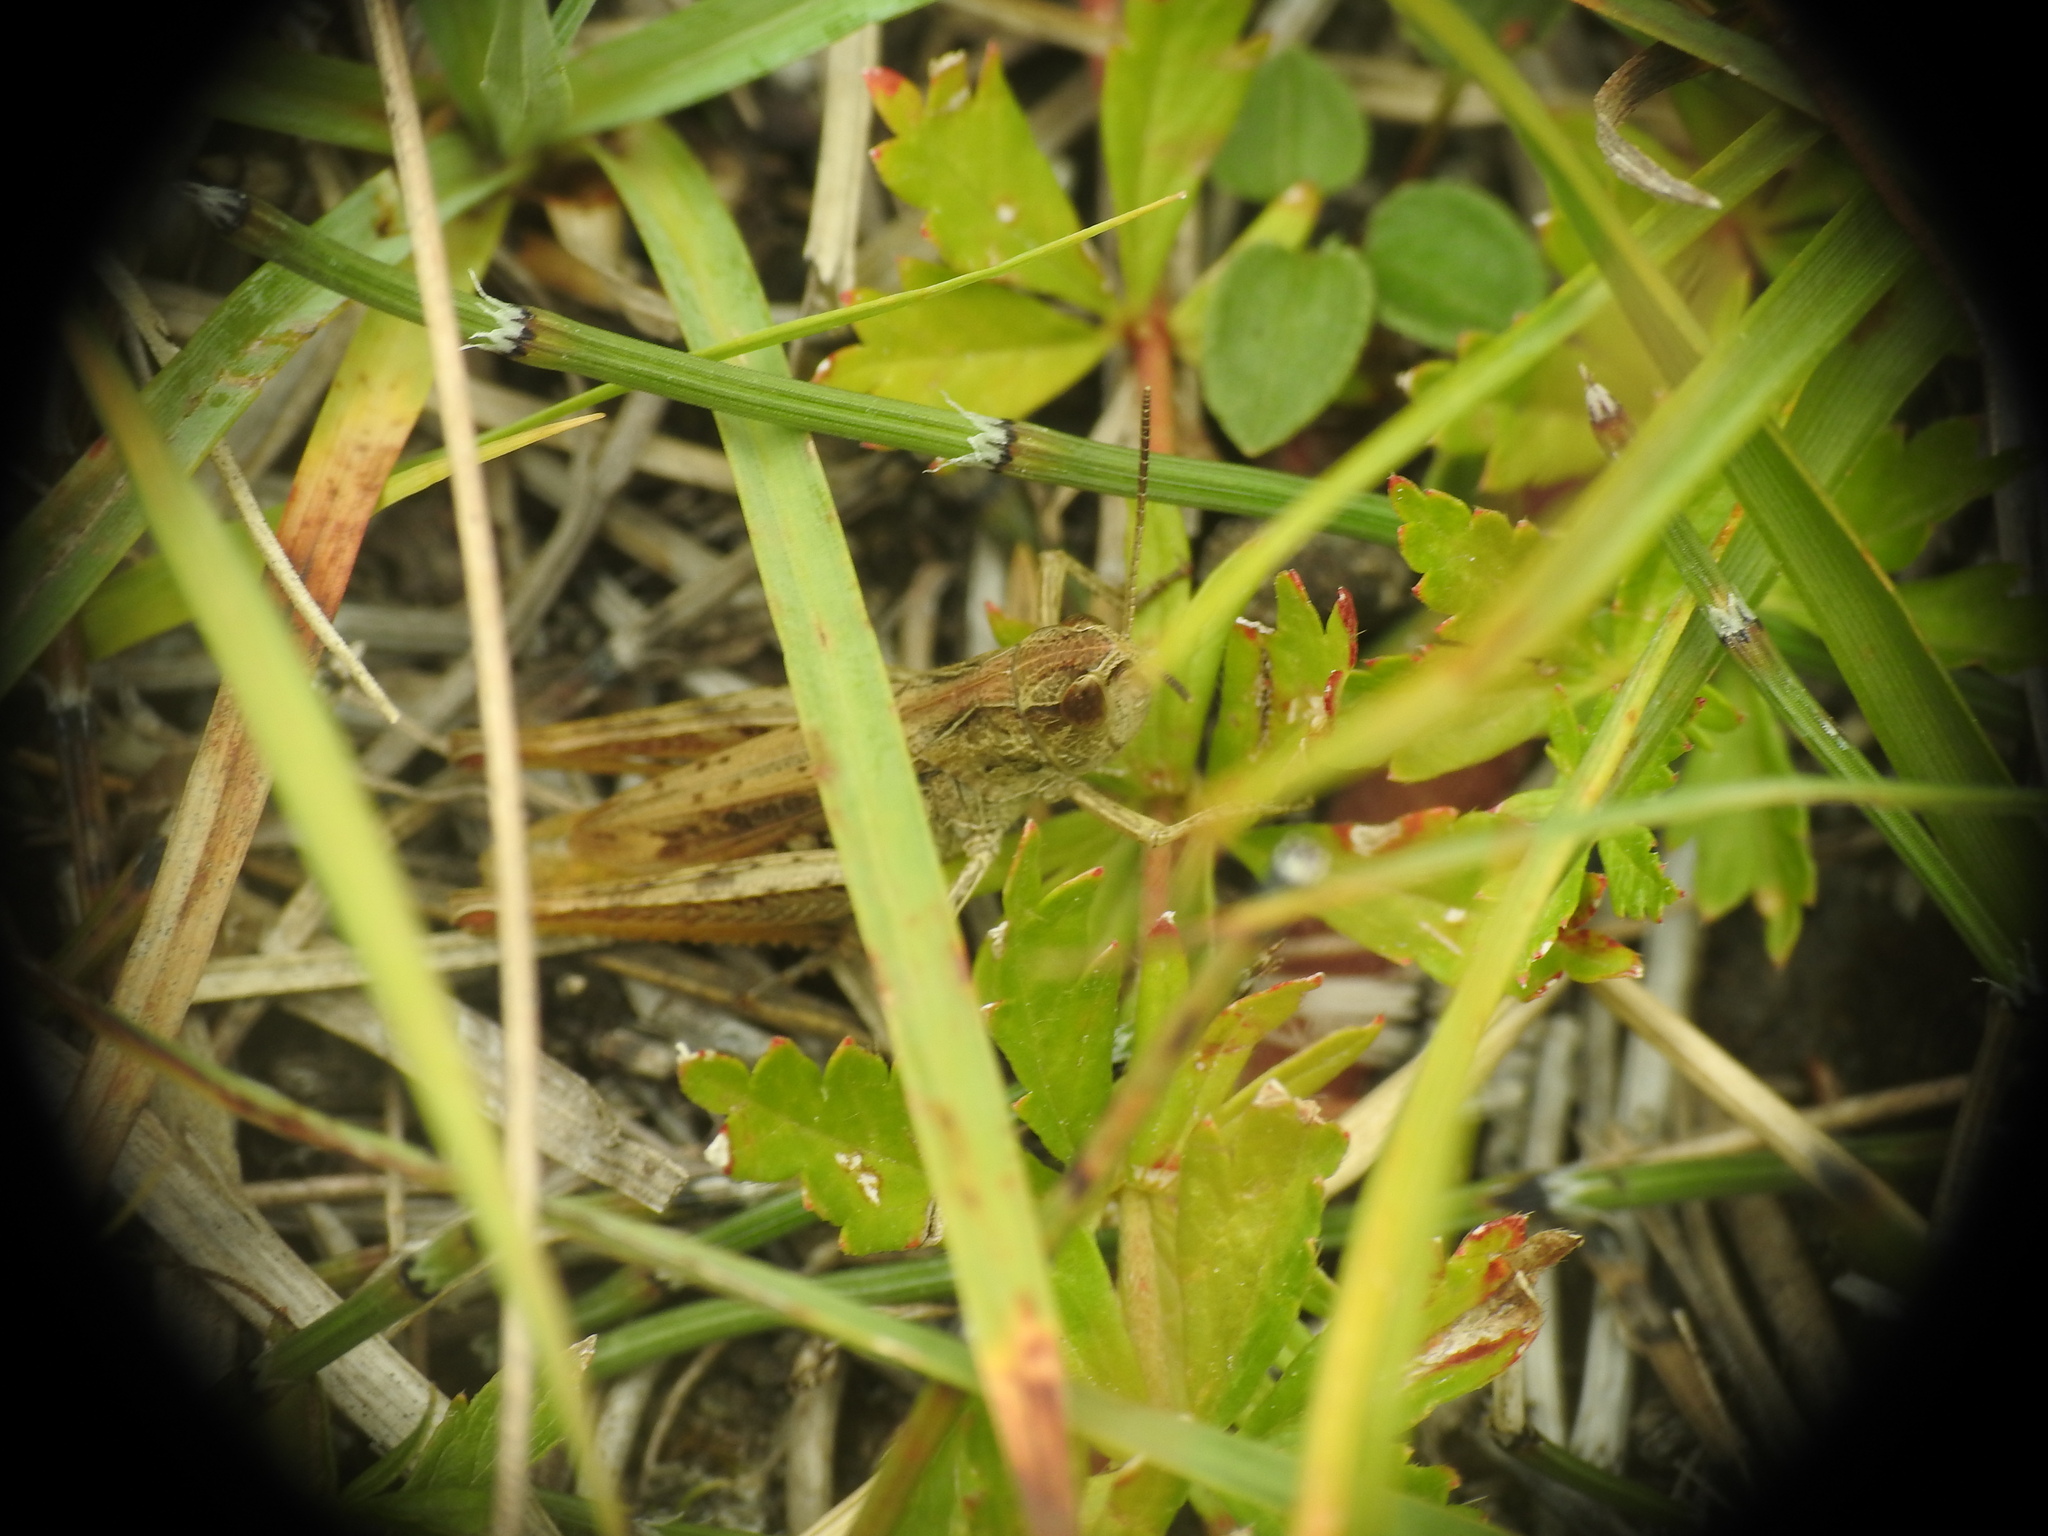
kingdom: Animalia
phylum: Arthropoda
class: Insecta
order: Orthoptera
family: Acrididae
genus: Chorthippus
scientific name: Chorthippus apricarius
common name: Upland field grasshopper
